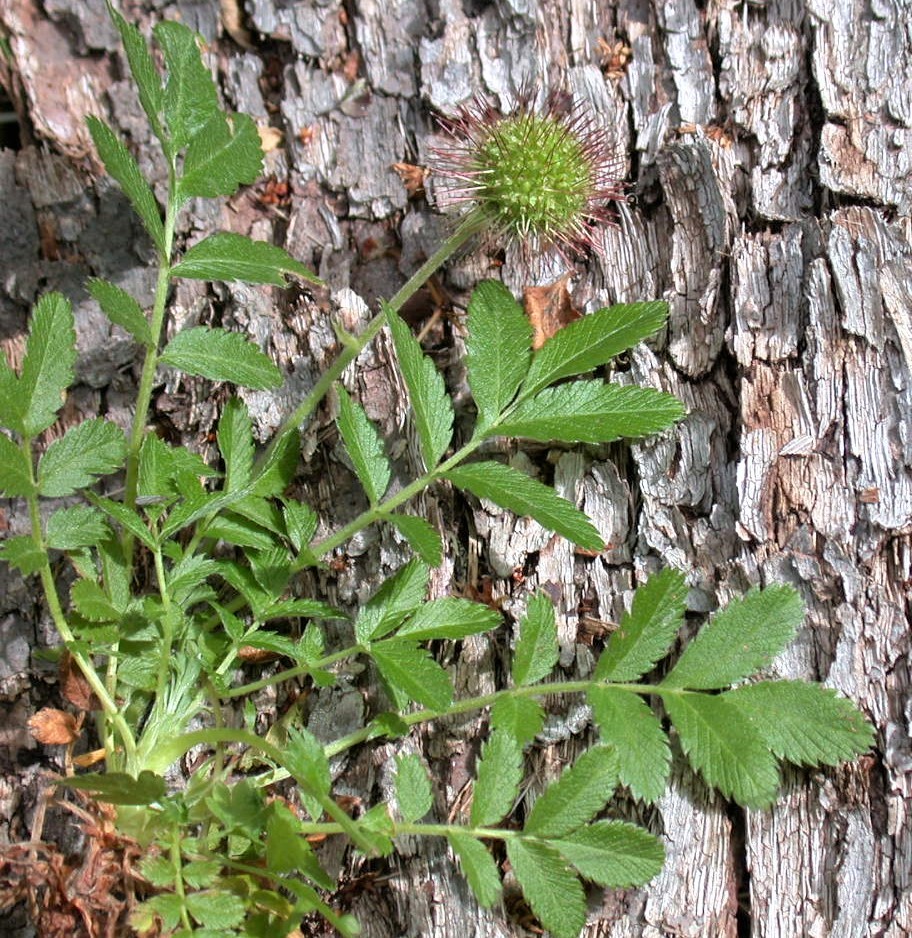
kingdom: Plantae
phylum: Tracheophyta
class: Magnoliopsida
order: Rosales
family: Rosaceae
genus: Acaena
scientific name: Acaena ovalifolia
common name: Two-spined acaena
